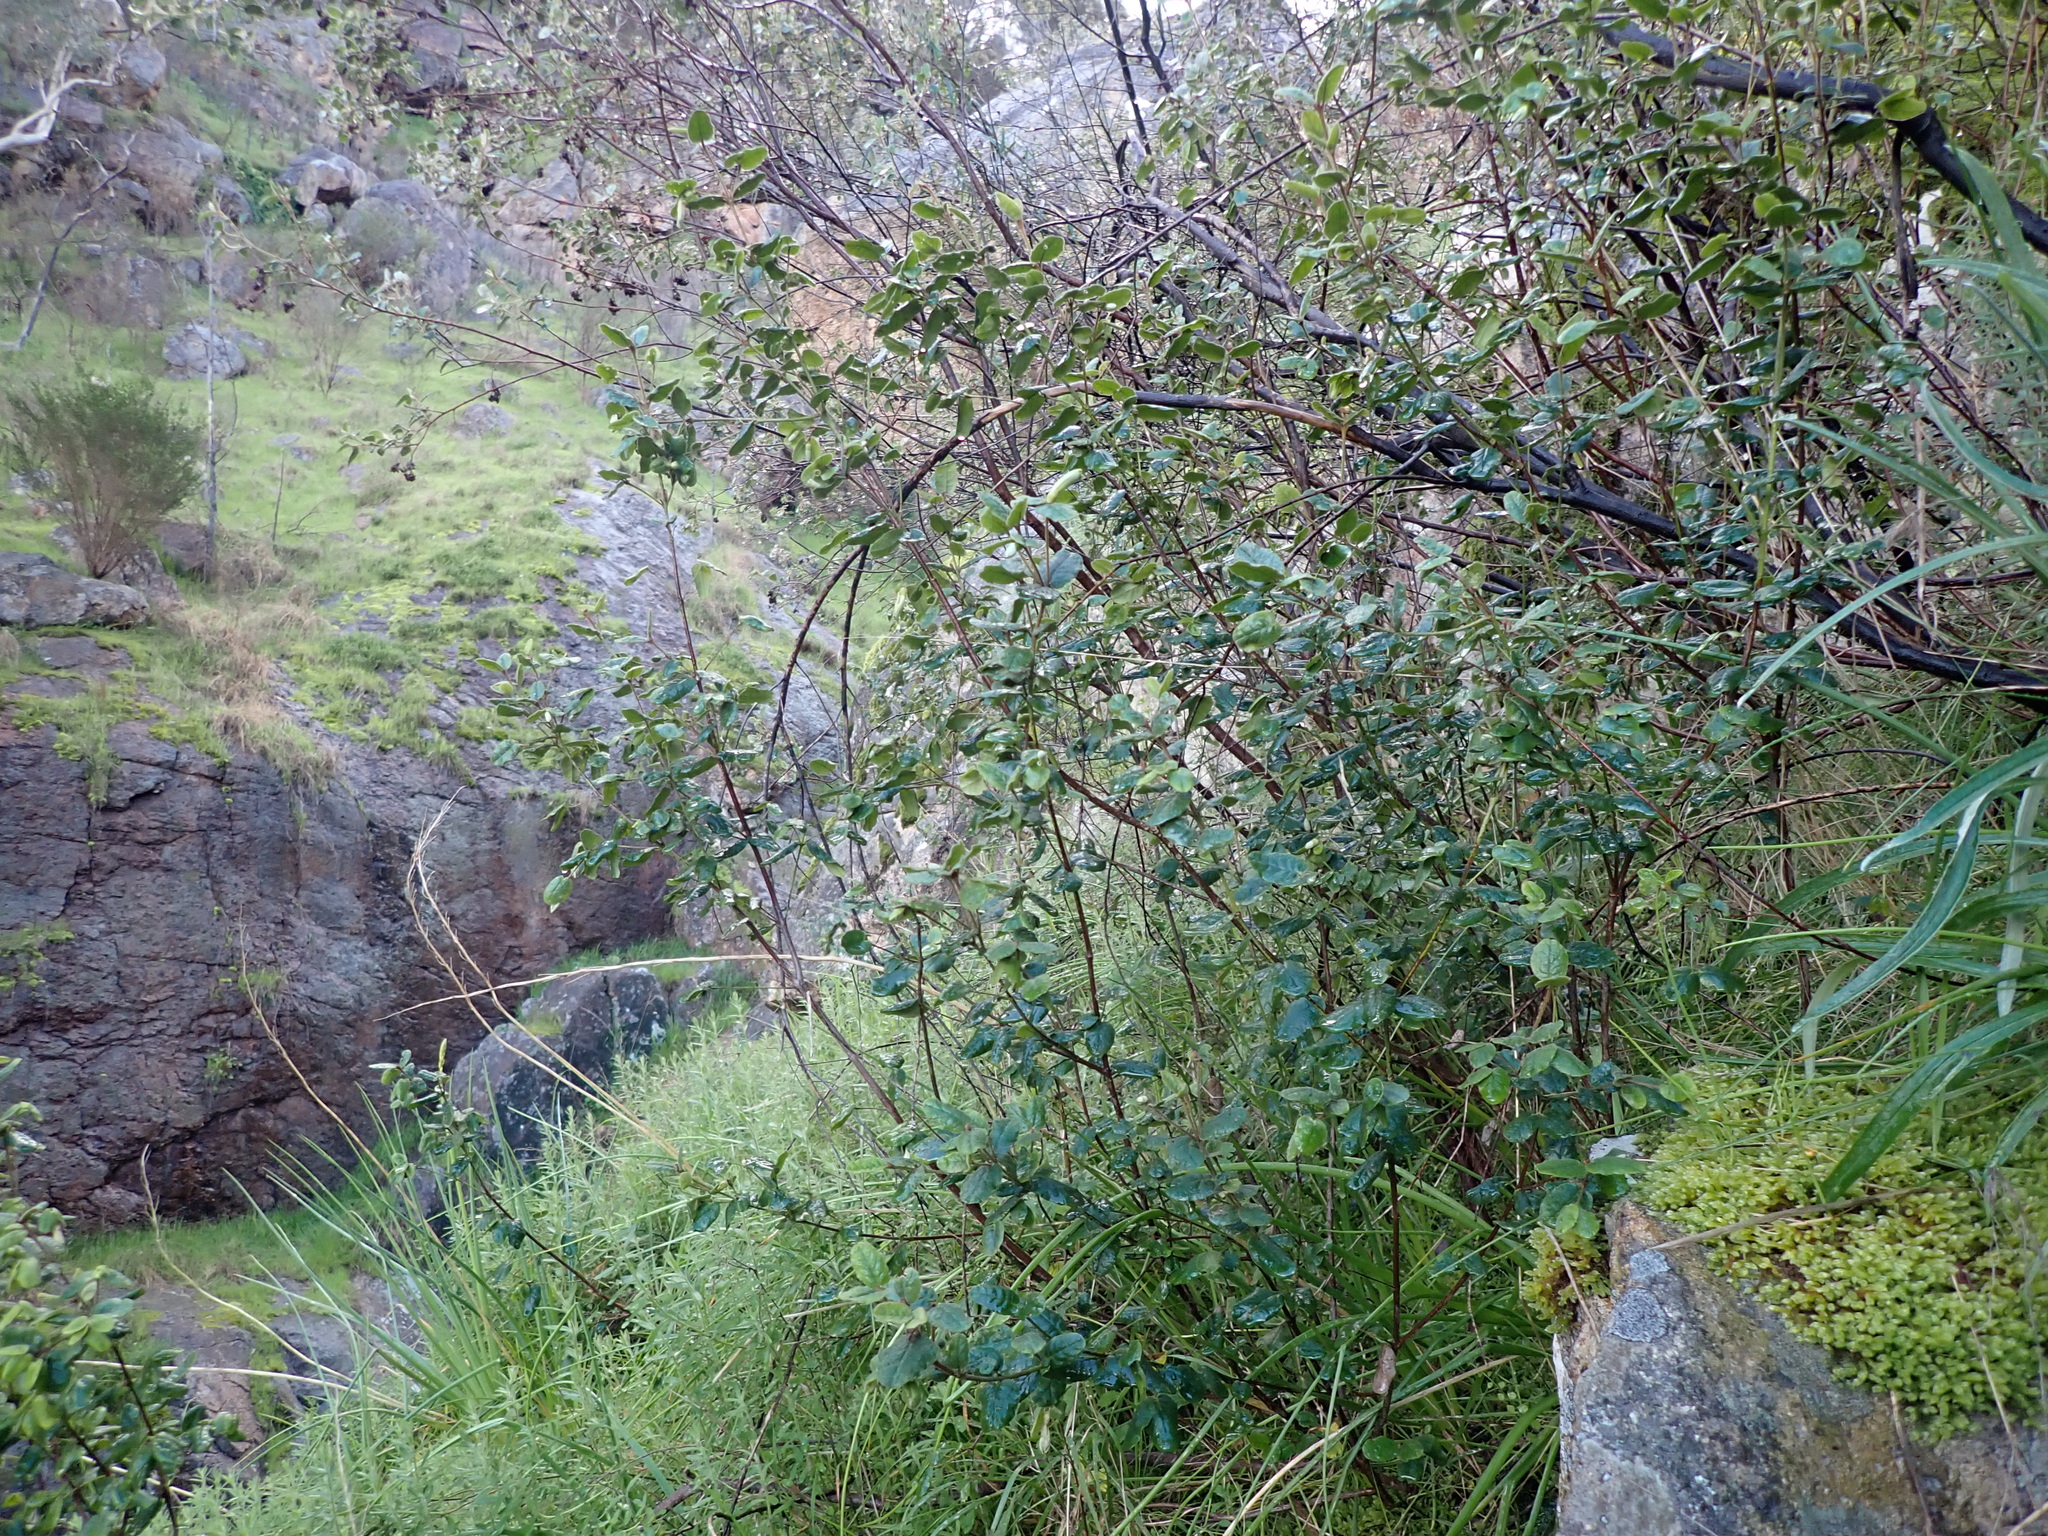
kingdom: Plantae
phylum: Tracheophyta
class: Magnoliopsida
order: Sapindales
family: Rutaceae
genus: Correa
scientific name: Correa reflexa
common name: Common correa
